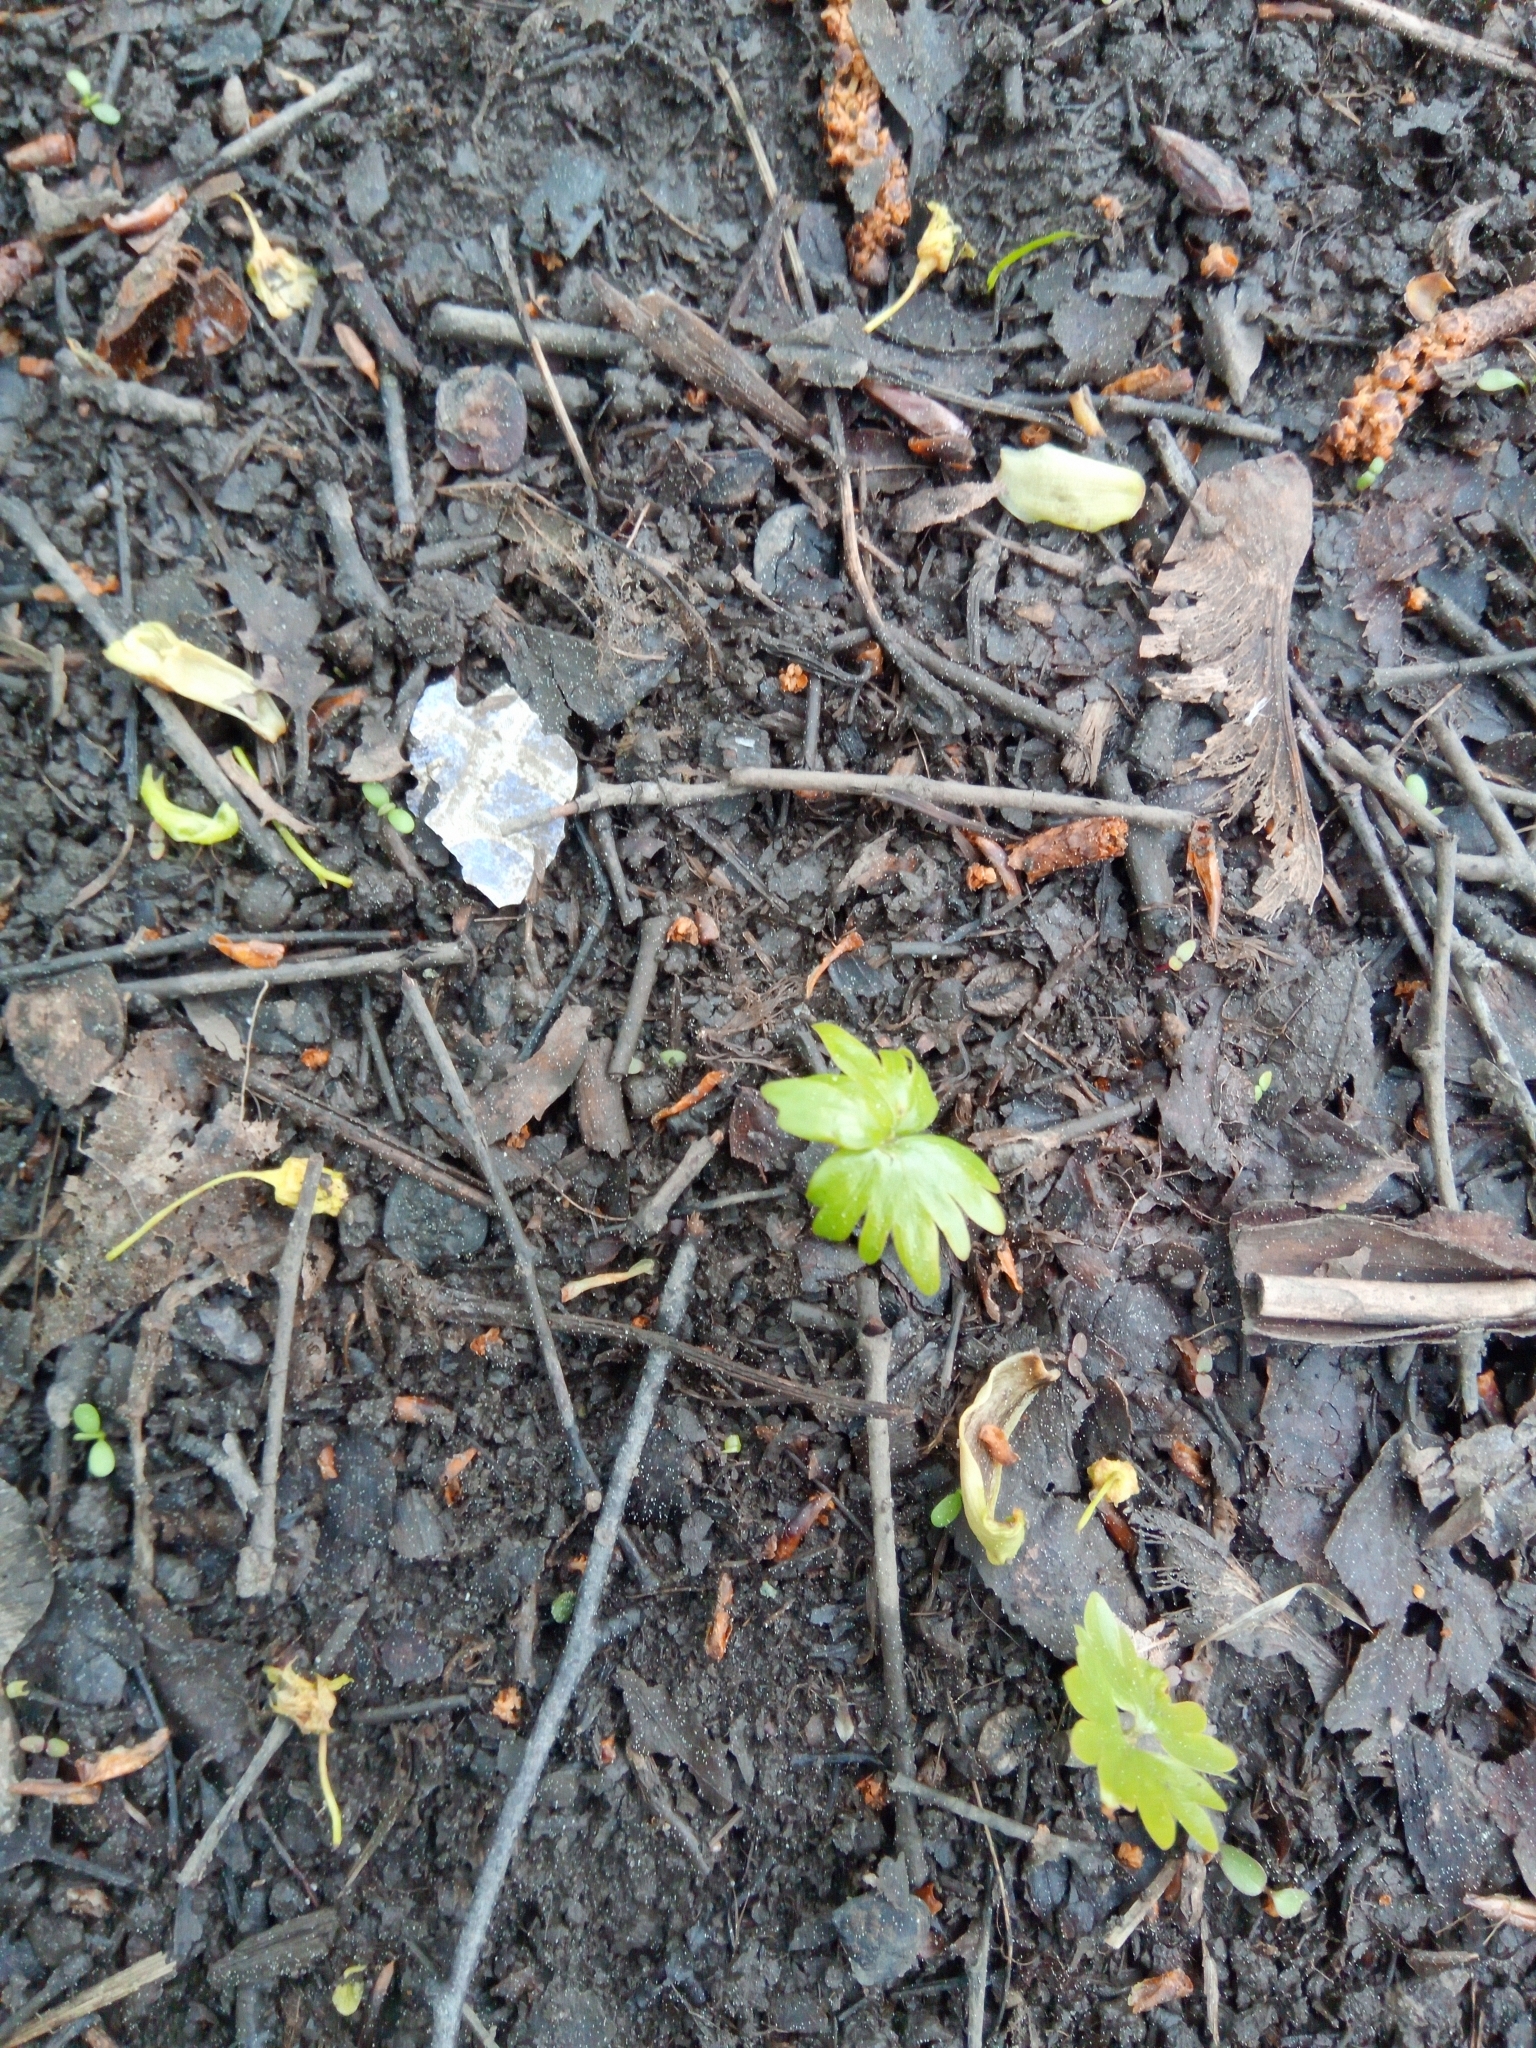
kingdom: Plantae
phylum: Tracheophyta
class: Magnoliopsida
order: Malvales
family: Malvaceae
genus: Tilia
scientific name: Tilia cordata
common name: Small-leaved lime
